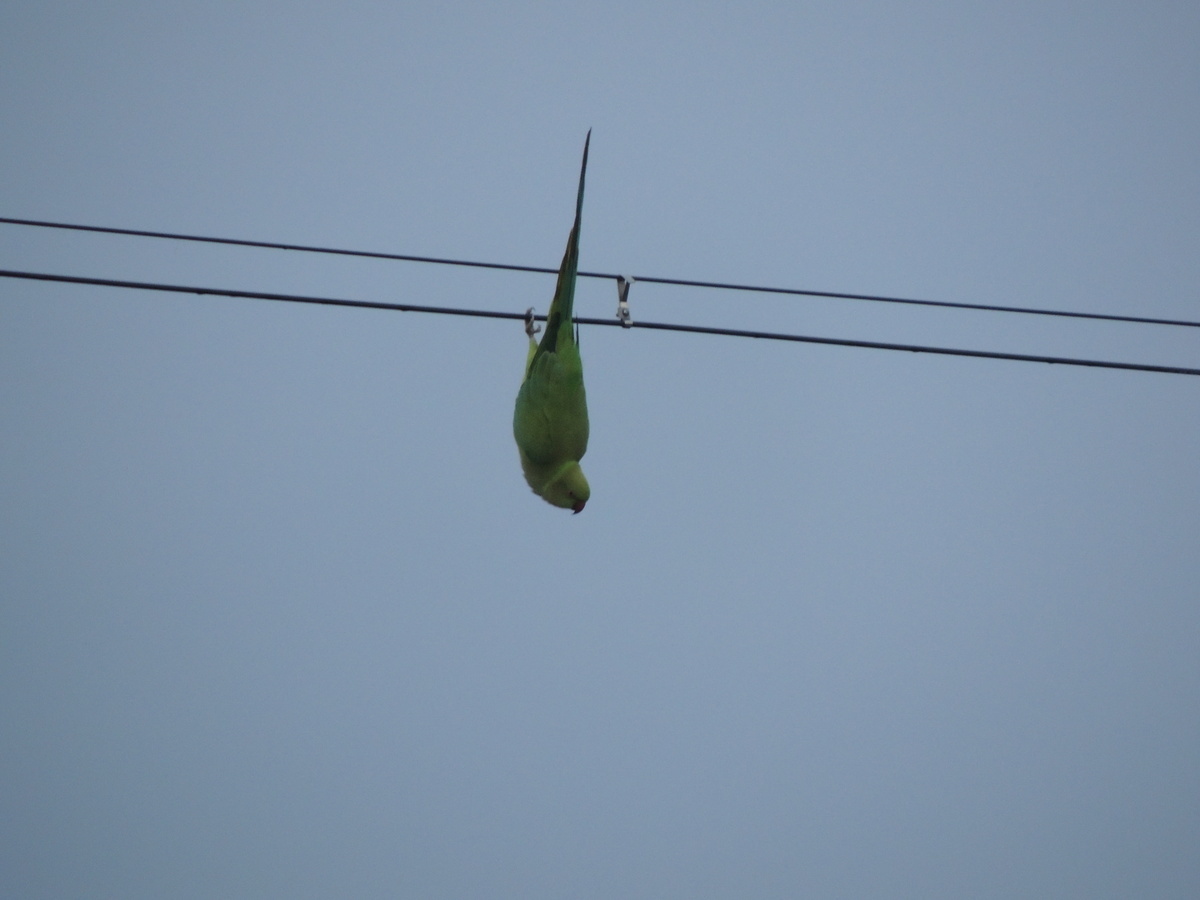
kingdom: Animalia
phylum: Chordata
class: Aves
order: Psittaciformes
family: Psittacidae
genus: Psittacula
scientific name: Psittacula krameri
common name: Rose-ringed parakeet
